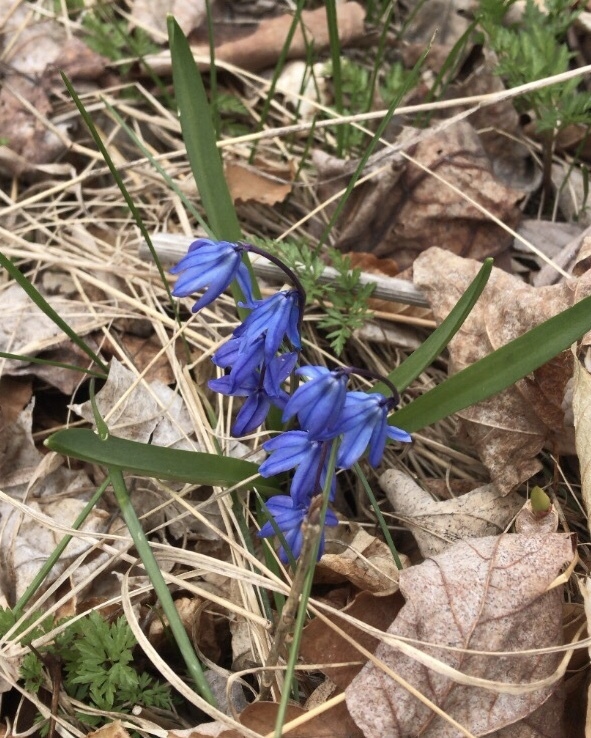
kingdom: Plantae
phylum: Tracheophyta
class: Liliopsida
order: Asparagales
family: Asparagaceae
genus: Scilla
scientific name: Scilla siberica
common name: Siberian squill
